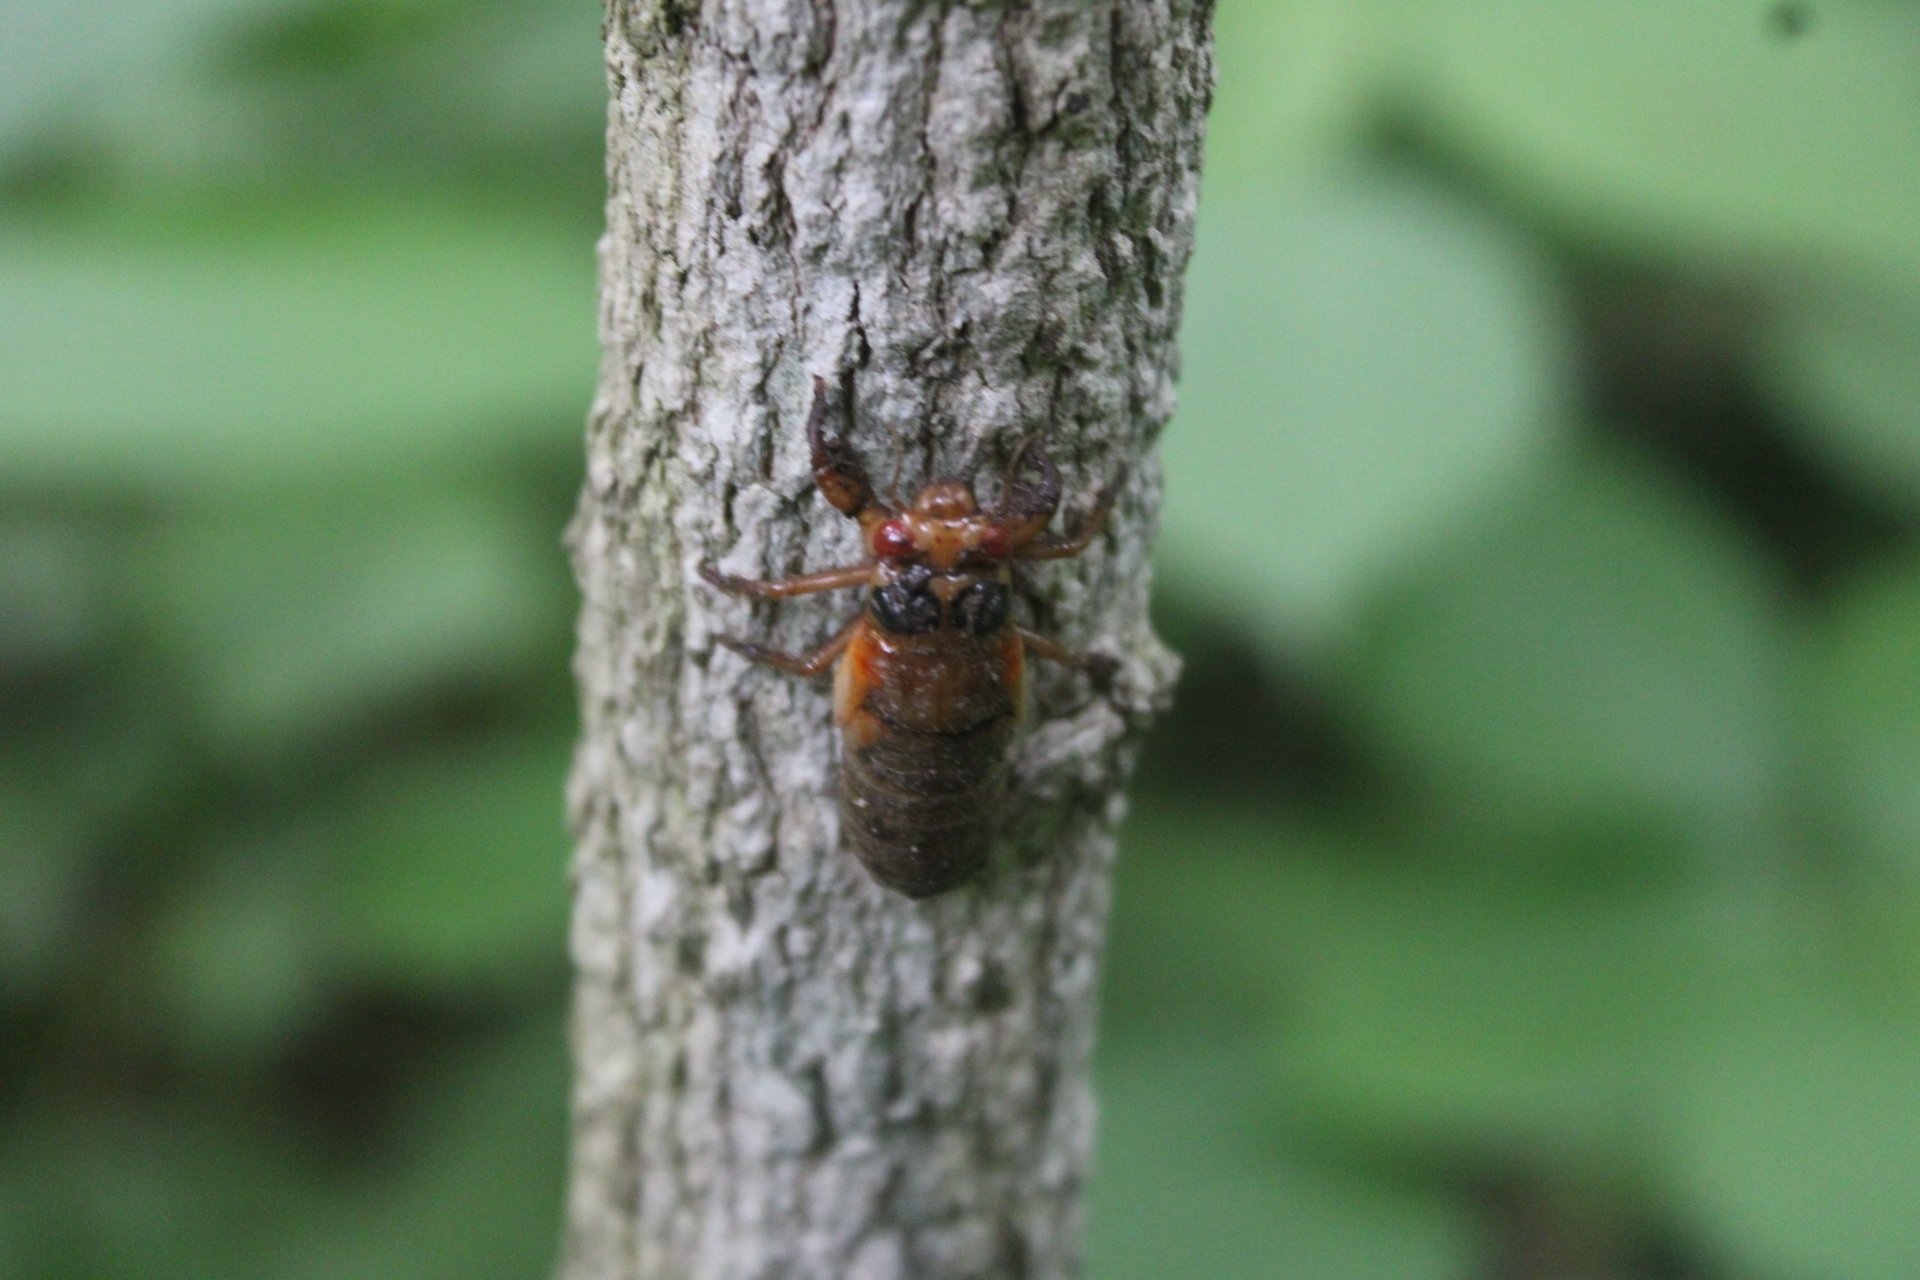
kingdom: Animalia
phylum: Arthropoda
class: Insecta
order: Hemiptera
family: Cicadidae
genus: Magicicada
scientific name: Magicicada
